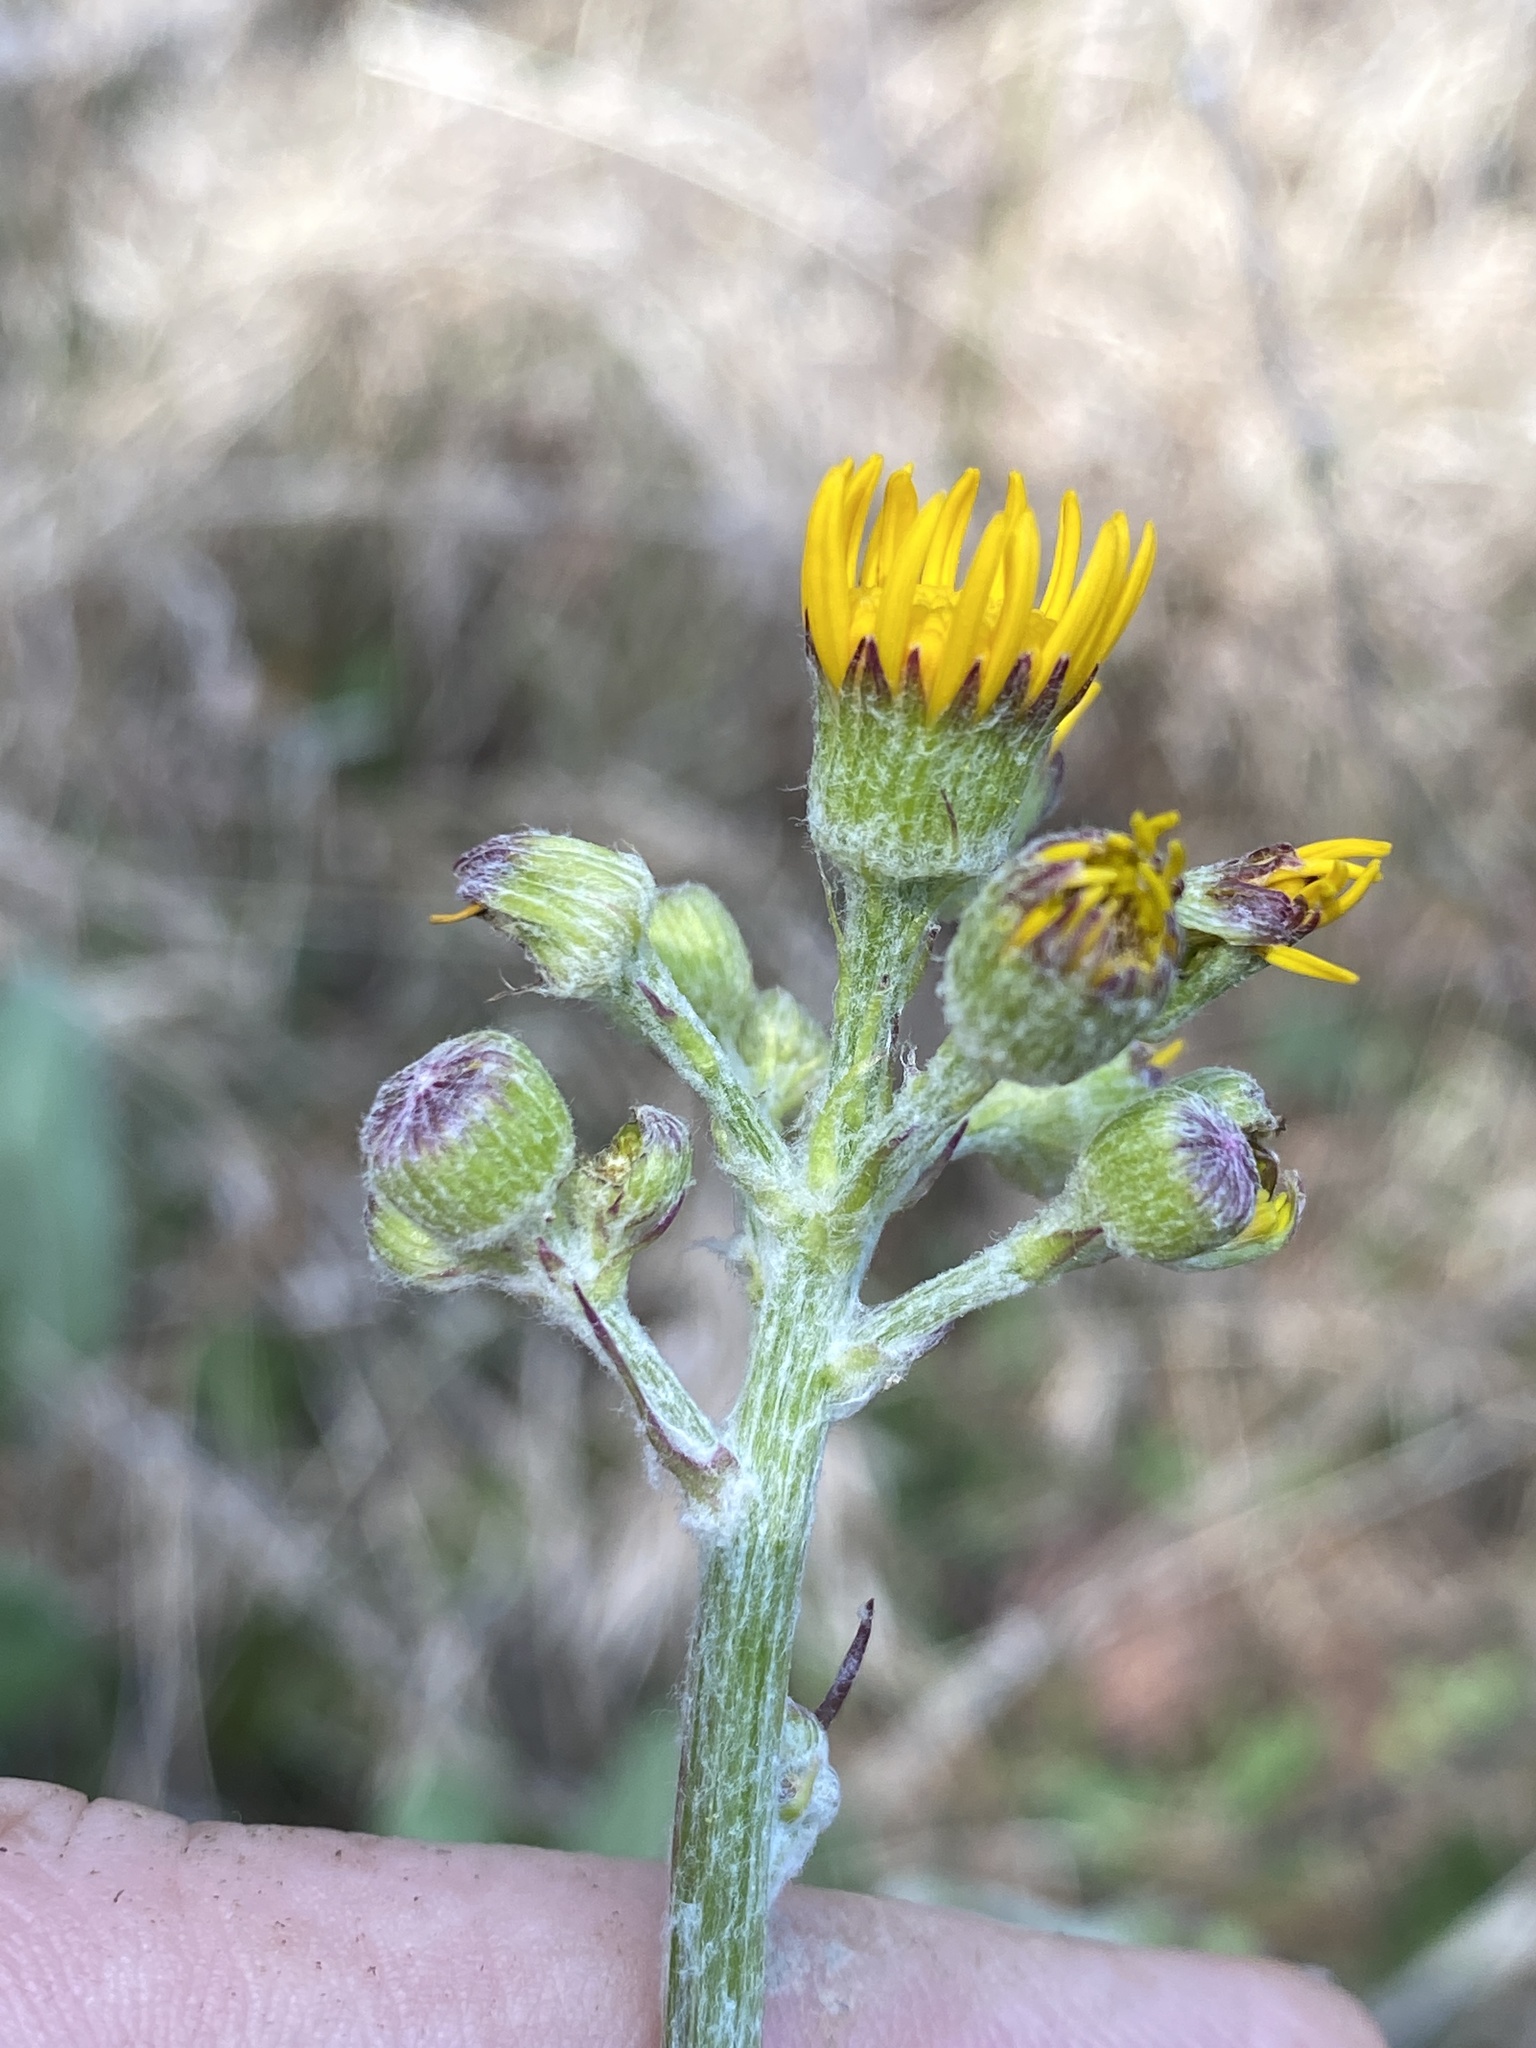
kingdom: Plantae
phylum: Tracheophyta
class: Magnoliopsida
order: Asterales
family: Asteraceae
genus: Packera
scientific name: Packera dubia
